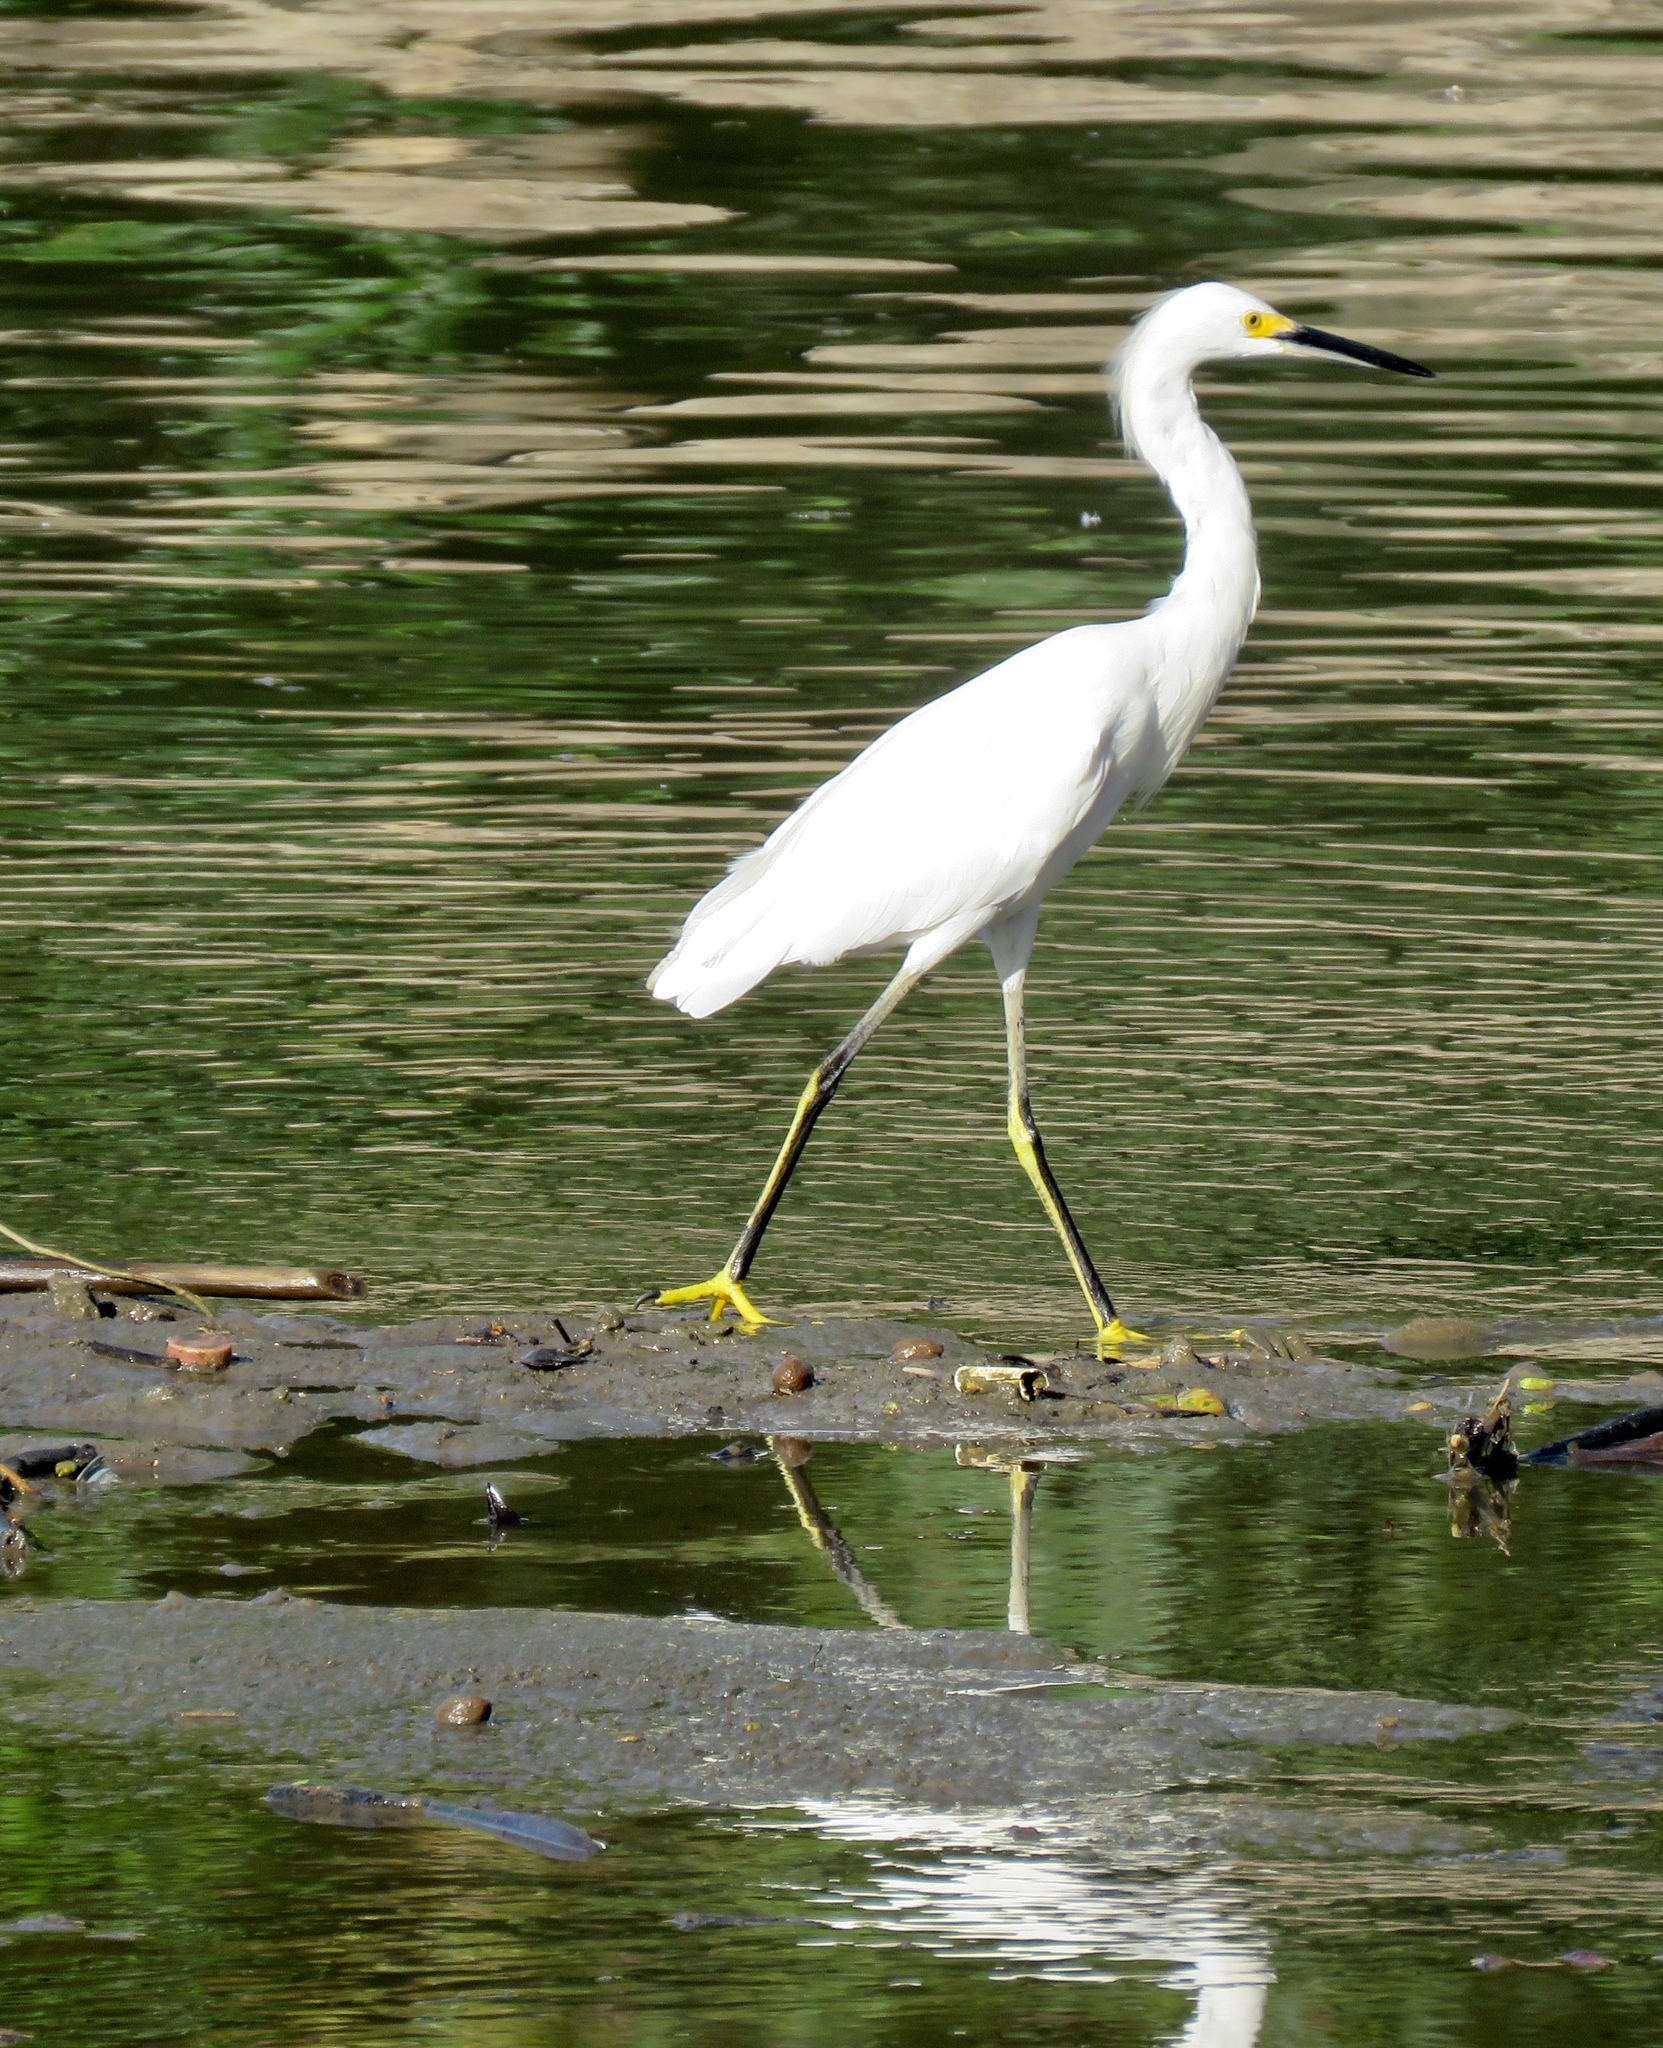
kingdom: Animalia
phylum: Chordata
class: Aves
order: Pelecaniformes
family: Ardeidae
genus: Egretta
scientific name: Egretta thula
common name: Snowy egret
